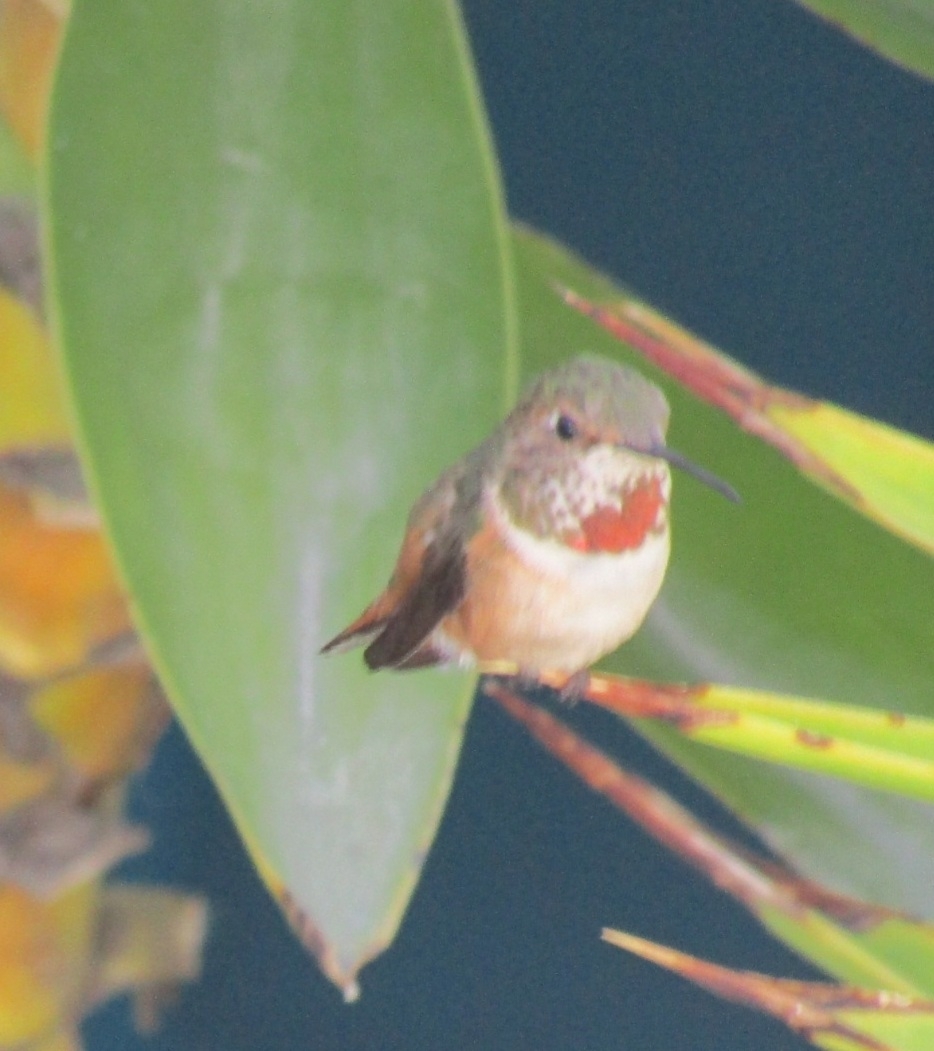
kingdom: Animalia
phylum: Chordata
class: Aves
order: Apodiformes
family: Trochilidae
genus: Selasphorus
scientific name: Selasphorus sasin
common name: Allen's hummingbird
